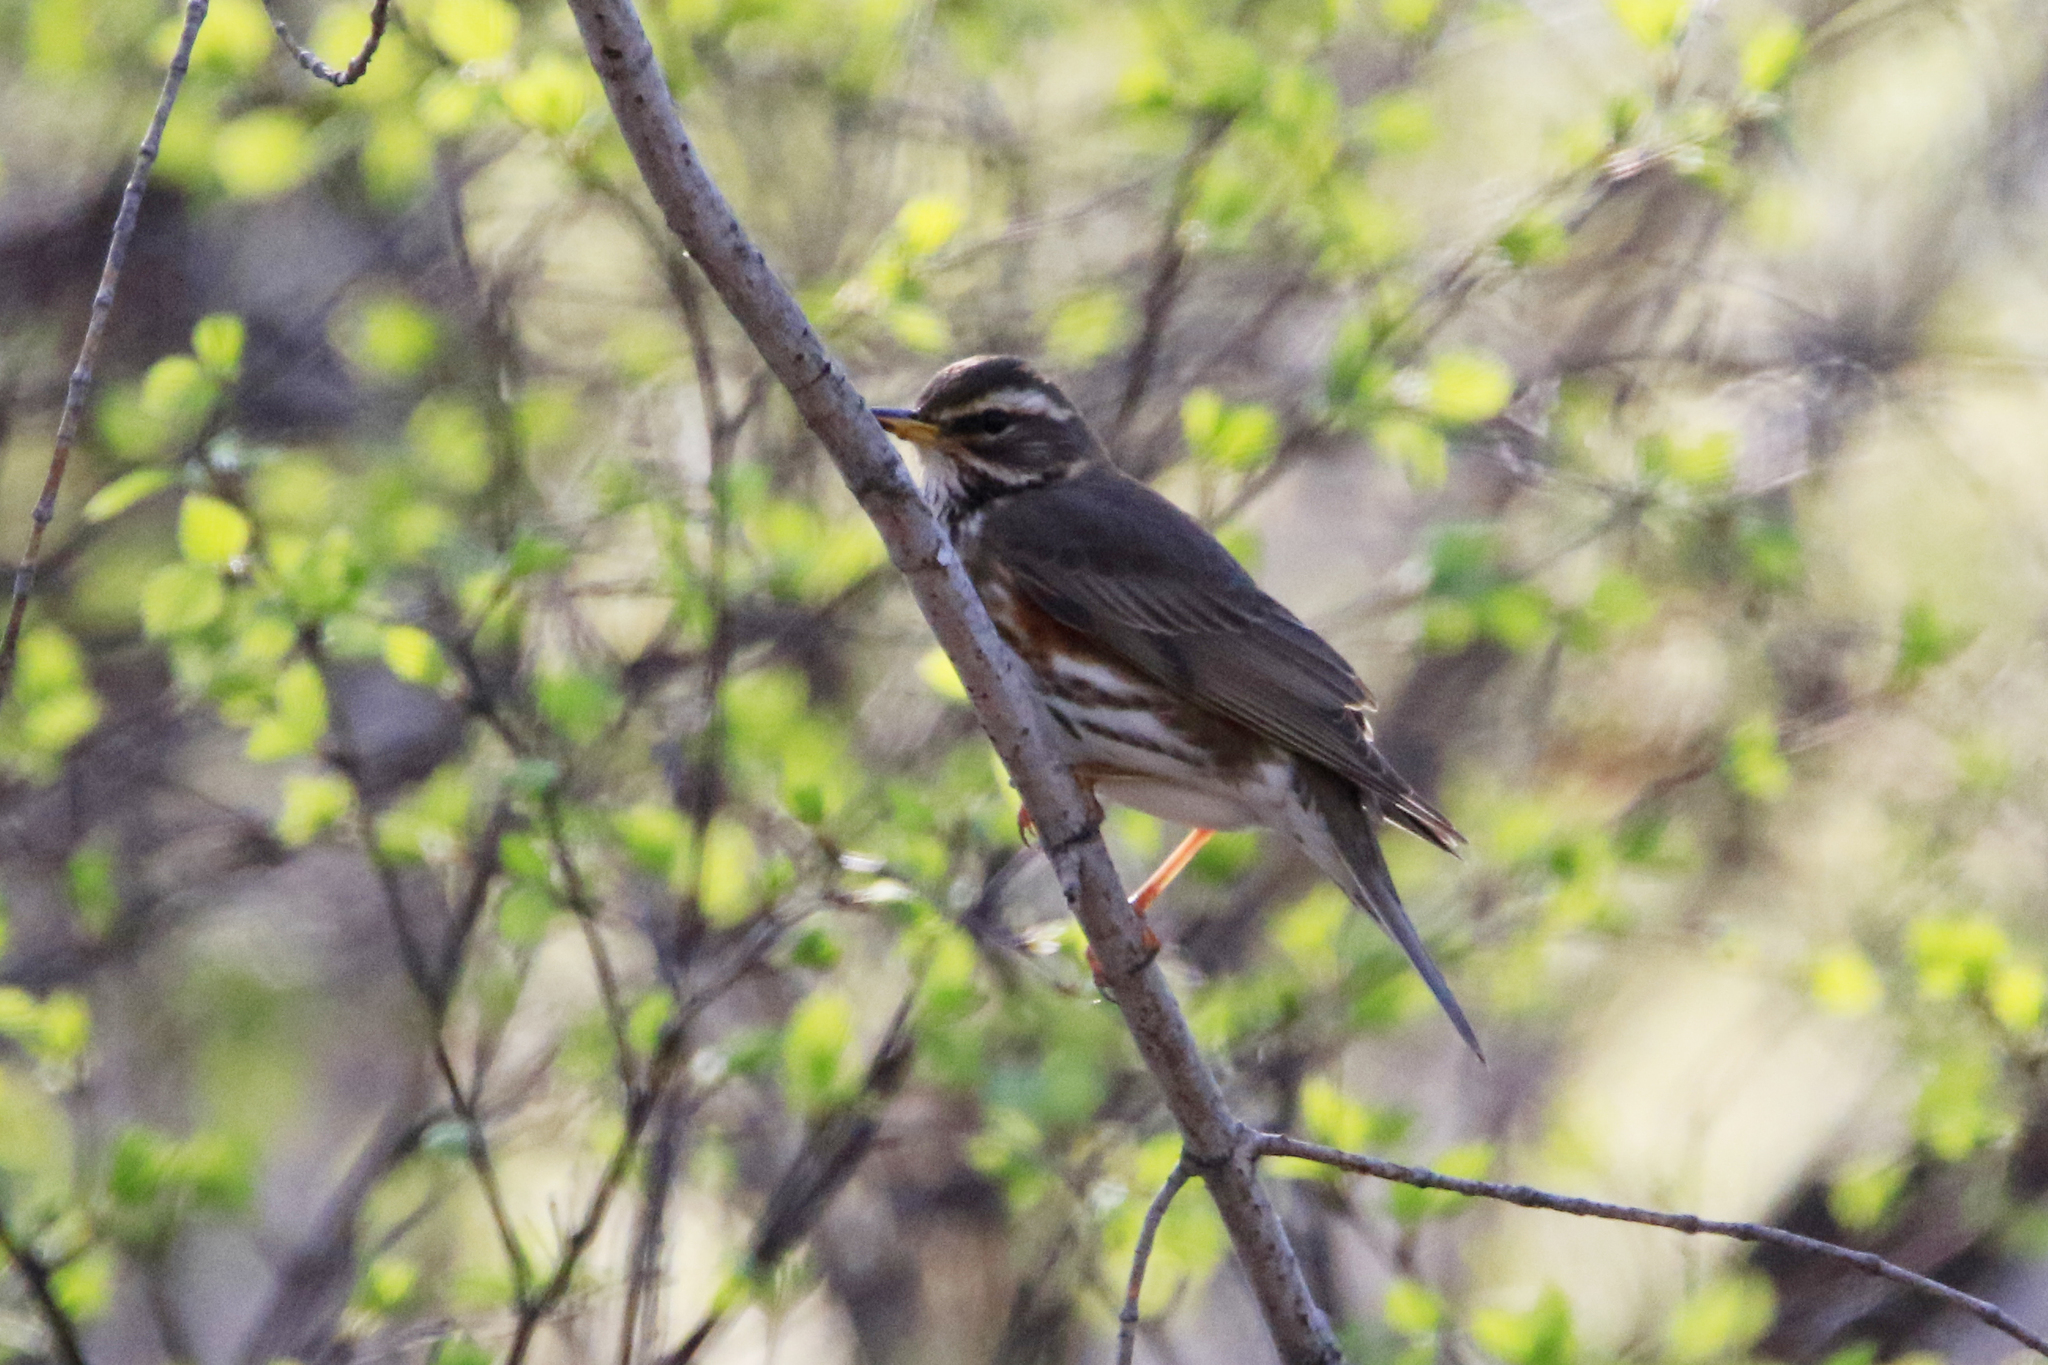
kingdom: Animalia
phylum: Chordata
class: Aves
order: Passeriformes
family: Turdidae
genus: Turdus
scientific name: Turdus iliacus
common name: Redwing
